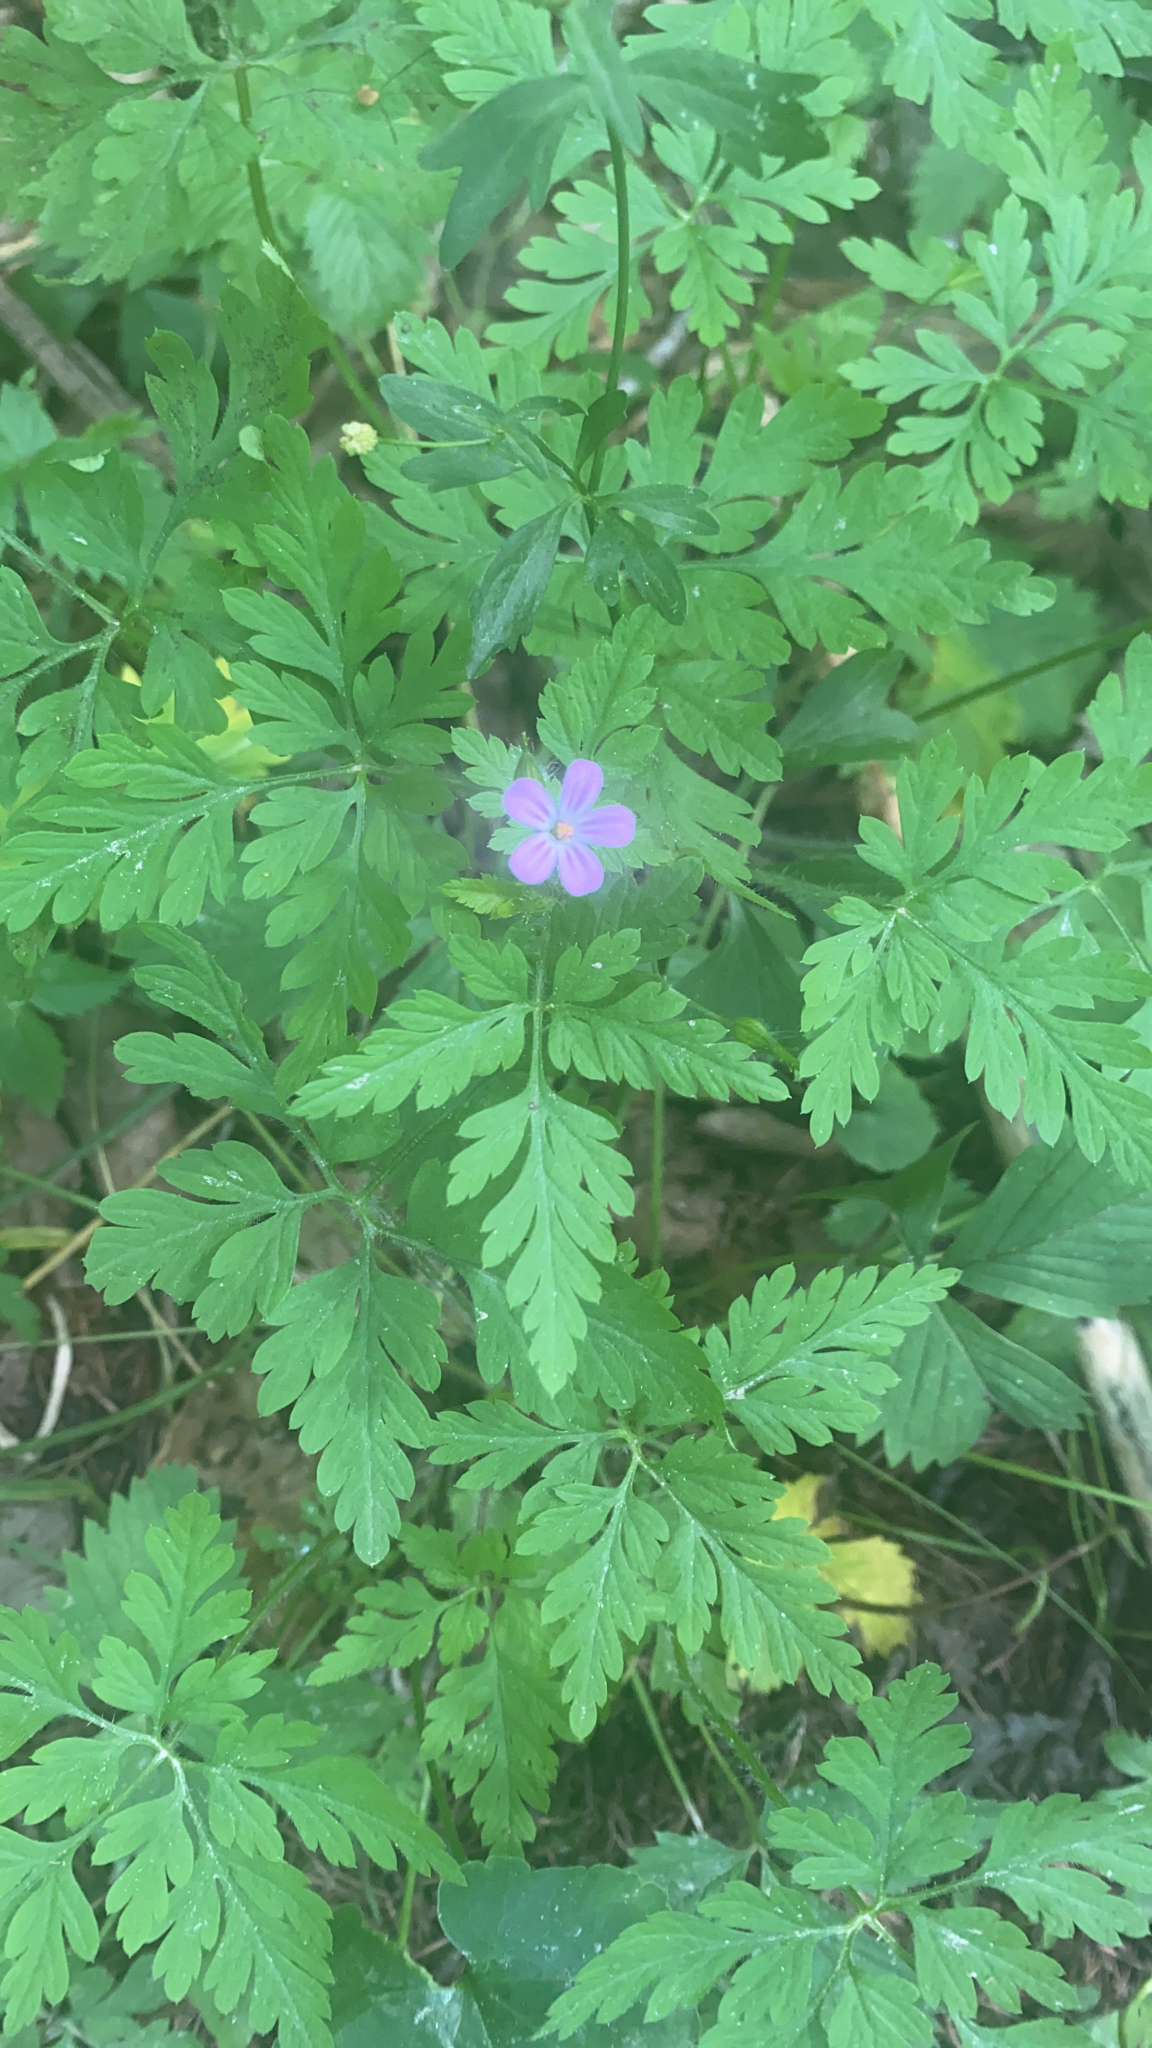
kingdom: Plantae
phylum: Tracheophyta
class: Magnoliopsida
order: Geraniales
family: Geraniaceae
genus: Geranium
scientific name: Geranium robertianum
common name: Herb-robert
